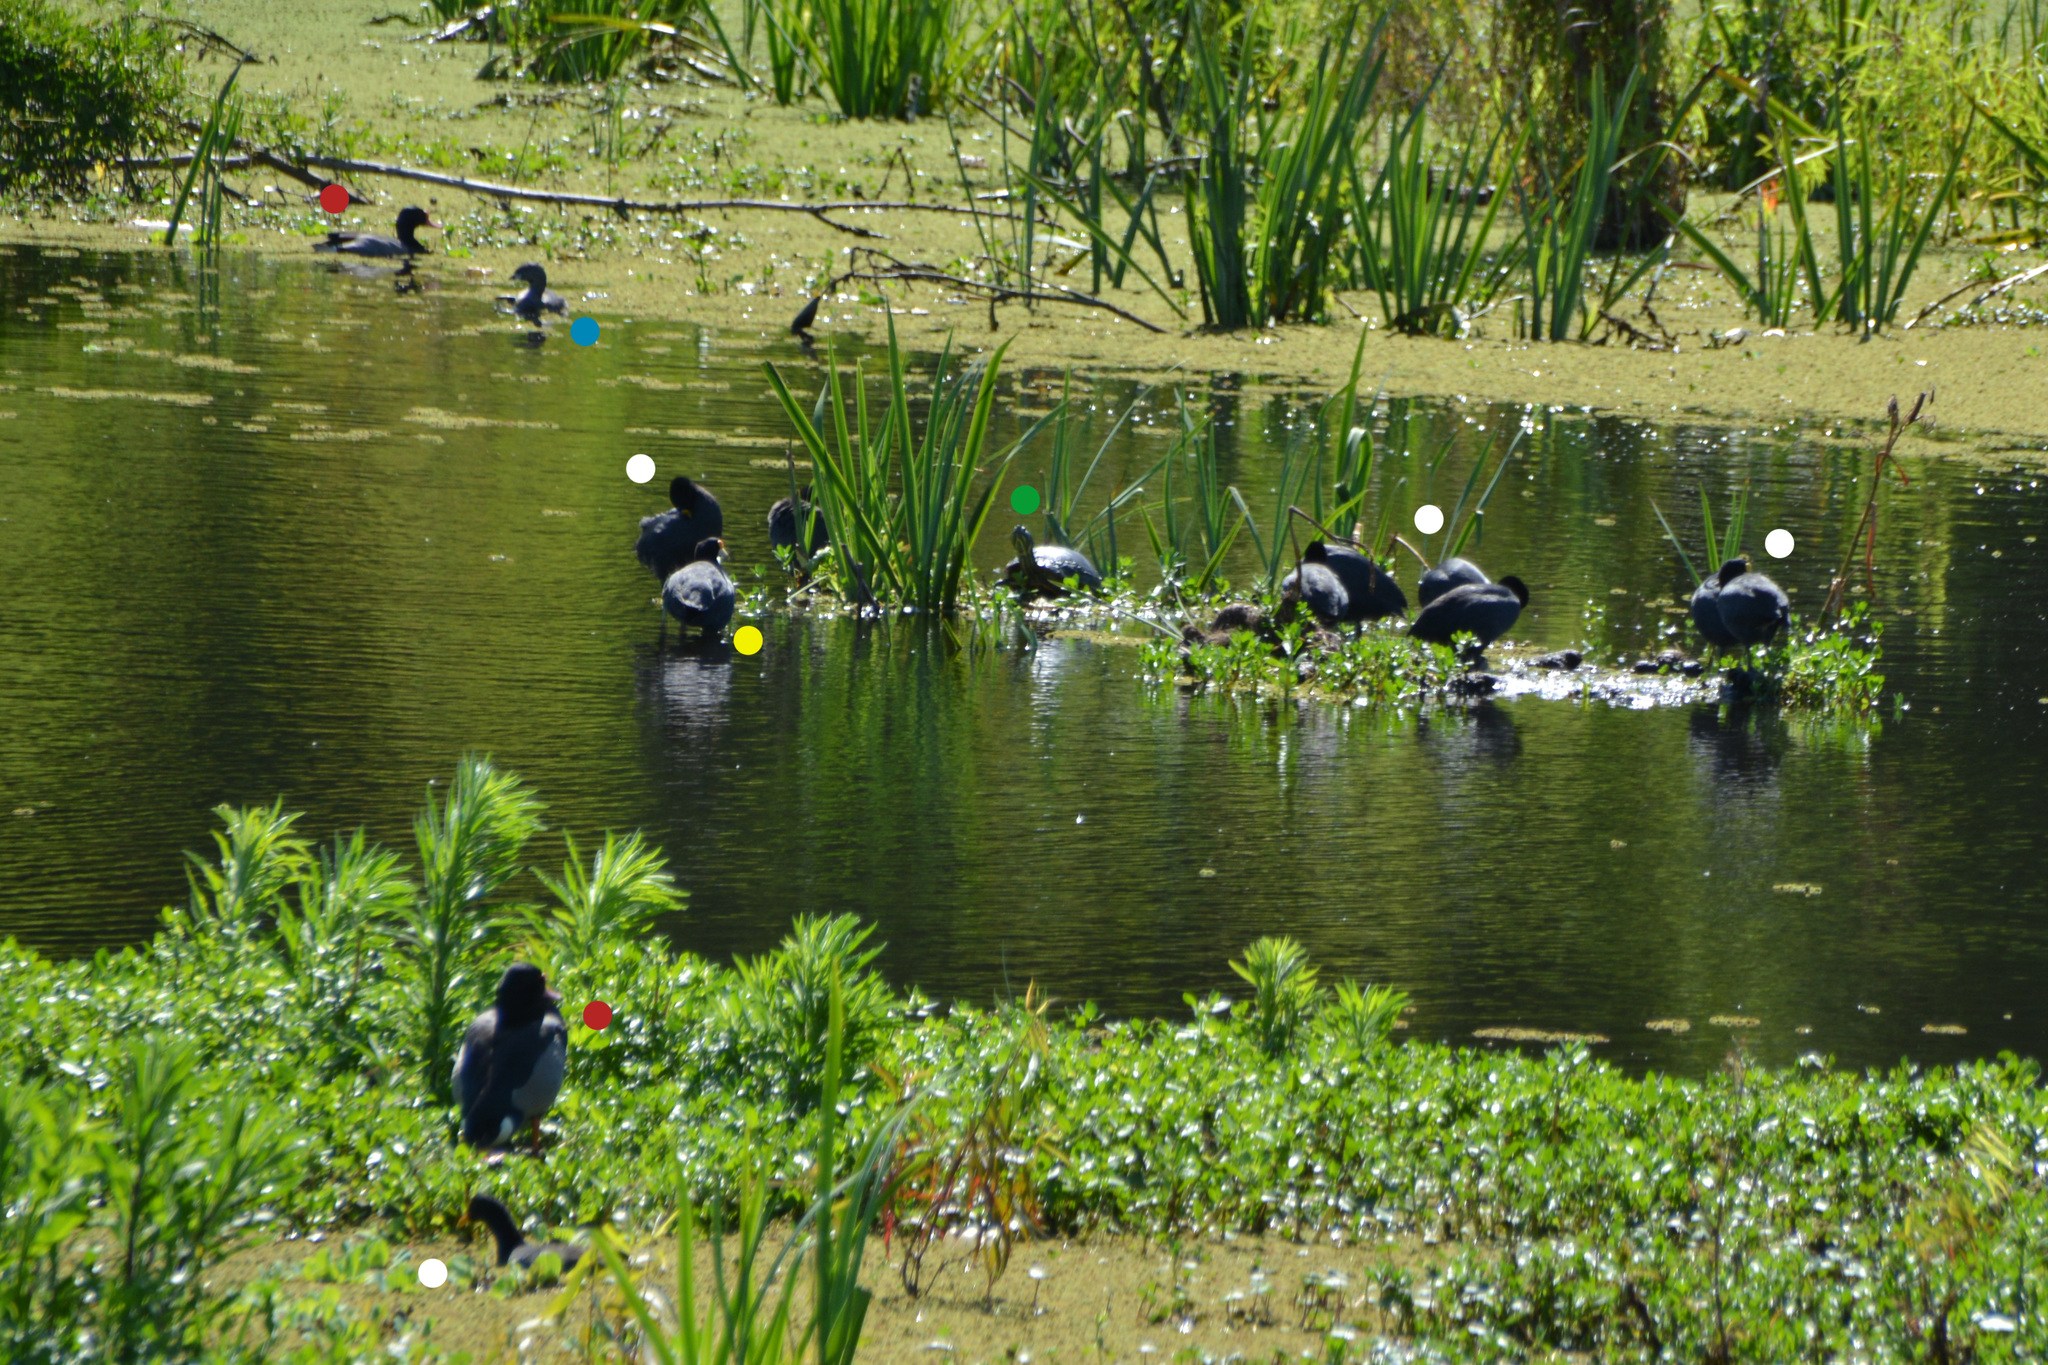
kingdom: Animalia
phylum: Chordata
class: Aves
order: Podicipediformes
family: Podicipedidae
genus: Podilymbus
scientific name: Podilymbus podiceps
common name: Pied-billed grebe
